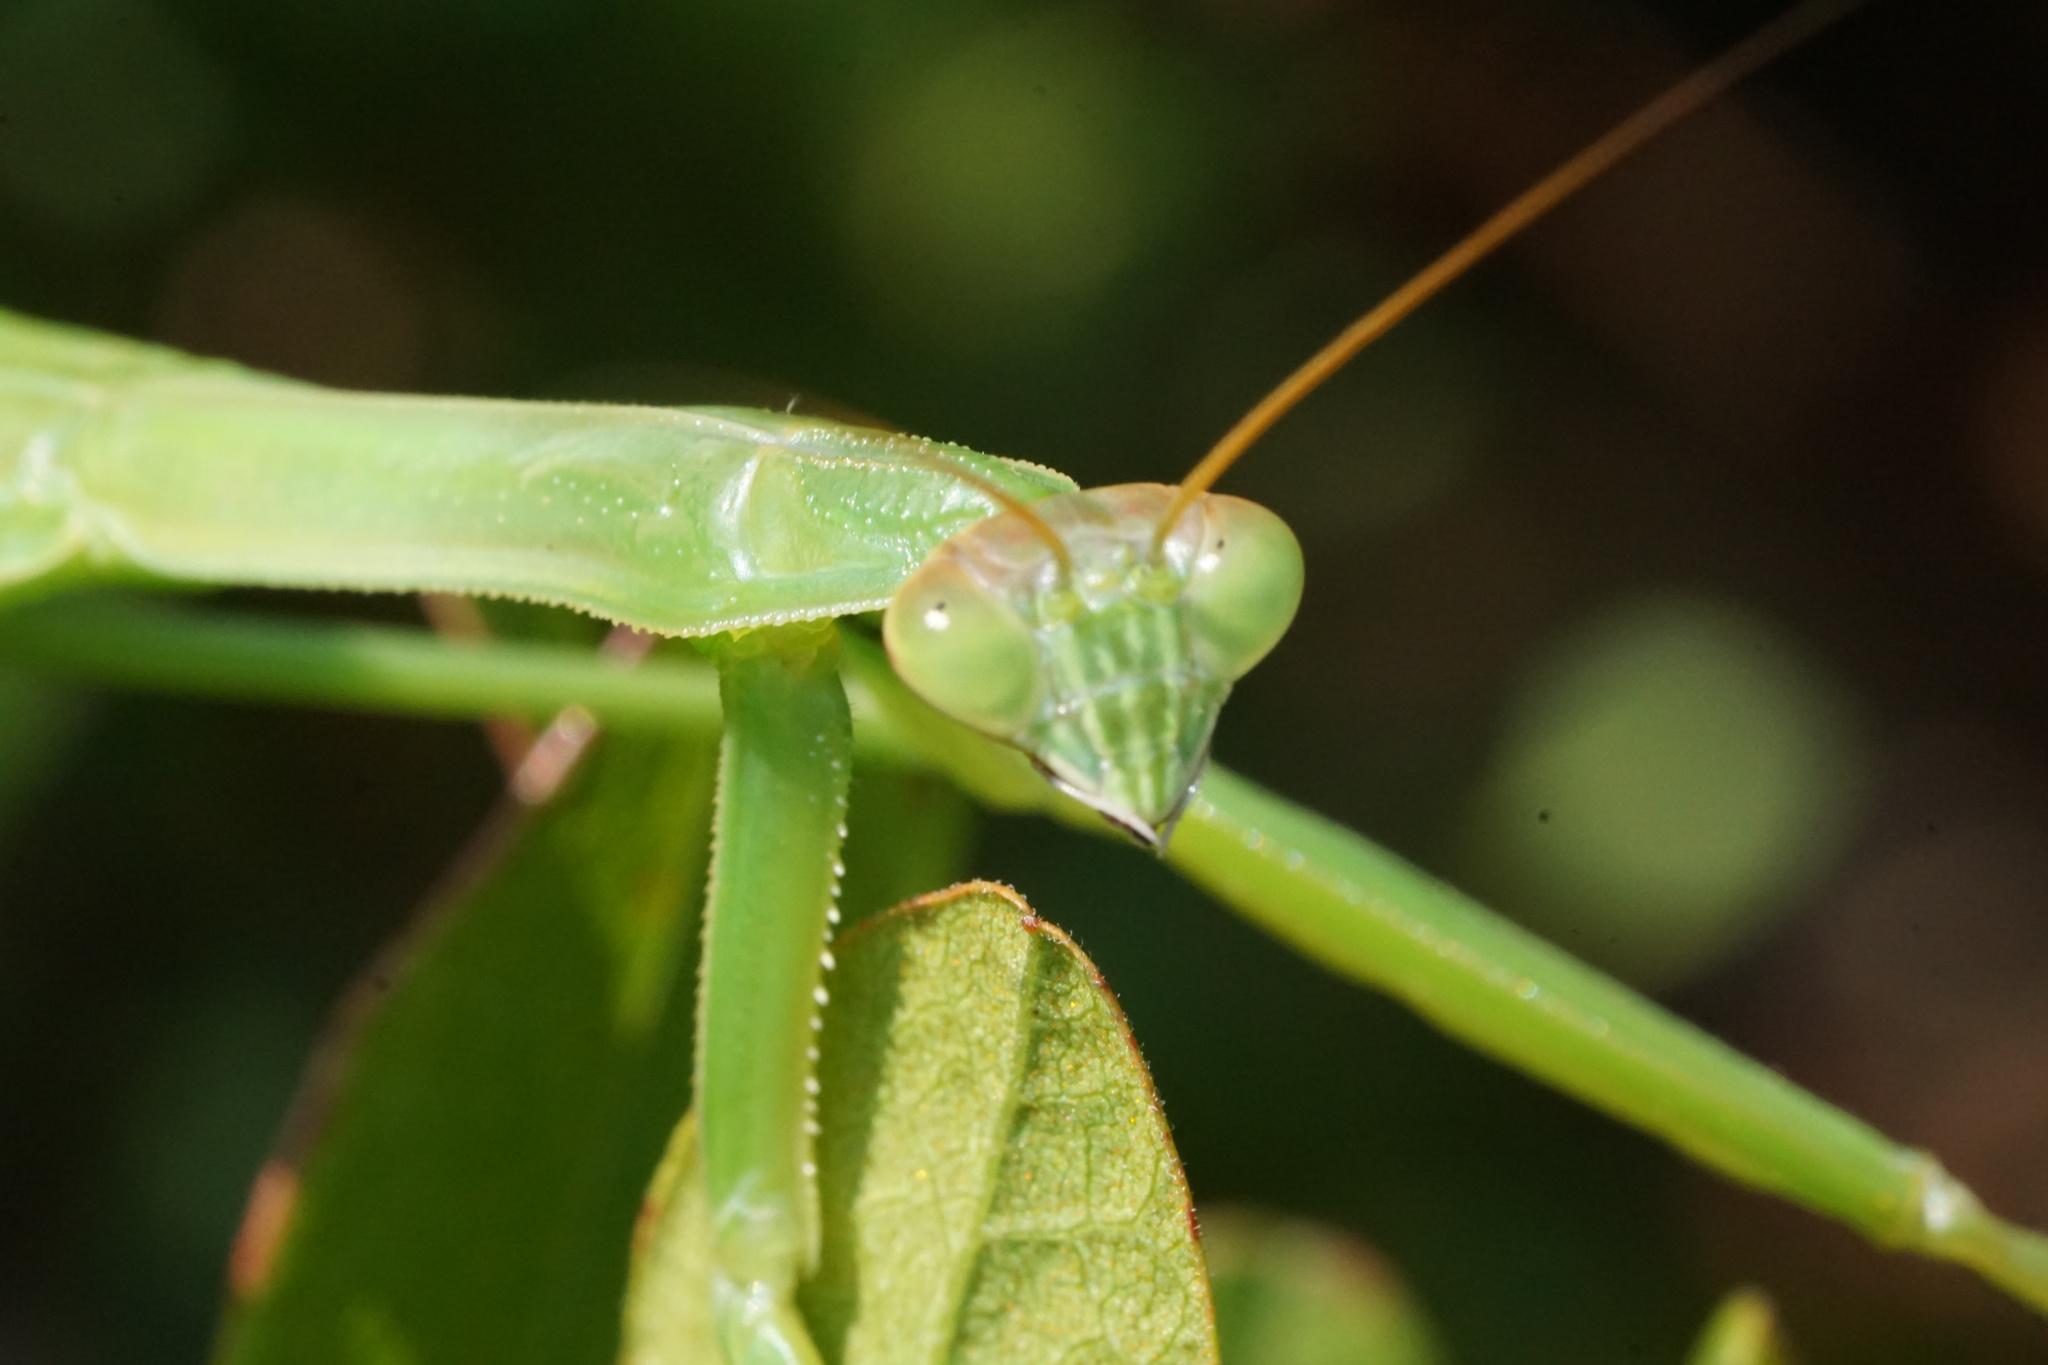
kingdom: Animalia
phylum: Arthropoda
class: Insecta
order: Mantodea
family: Mantidae
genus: Tenodera
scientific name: Tenodera sinensis
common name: Chinese mantis
